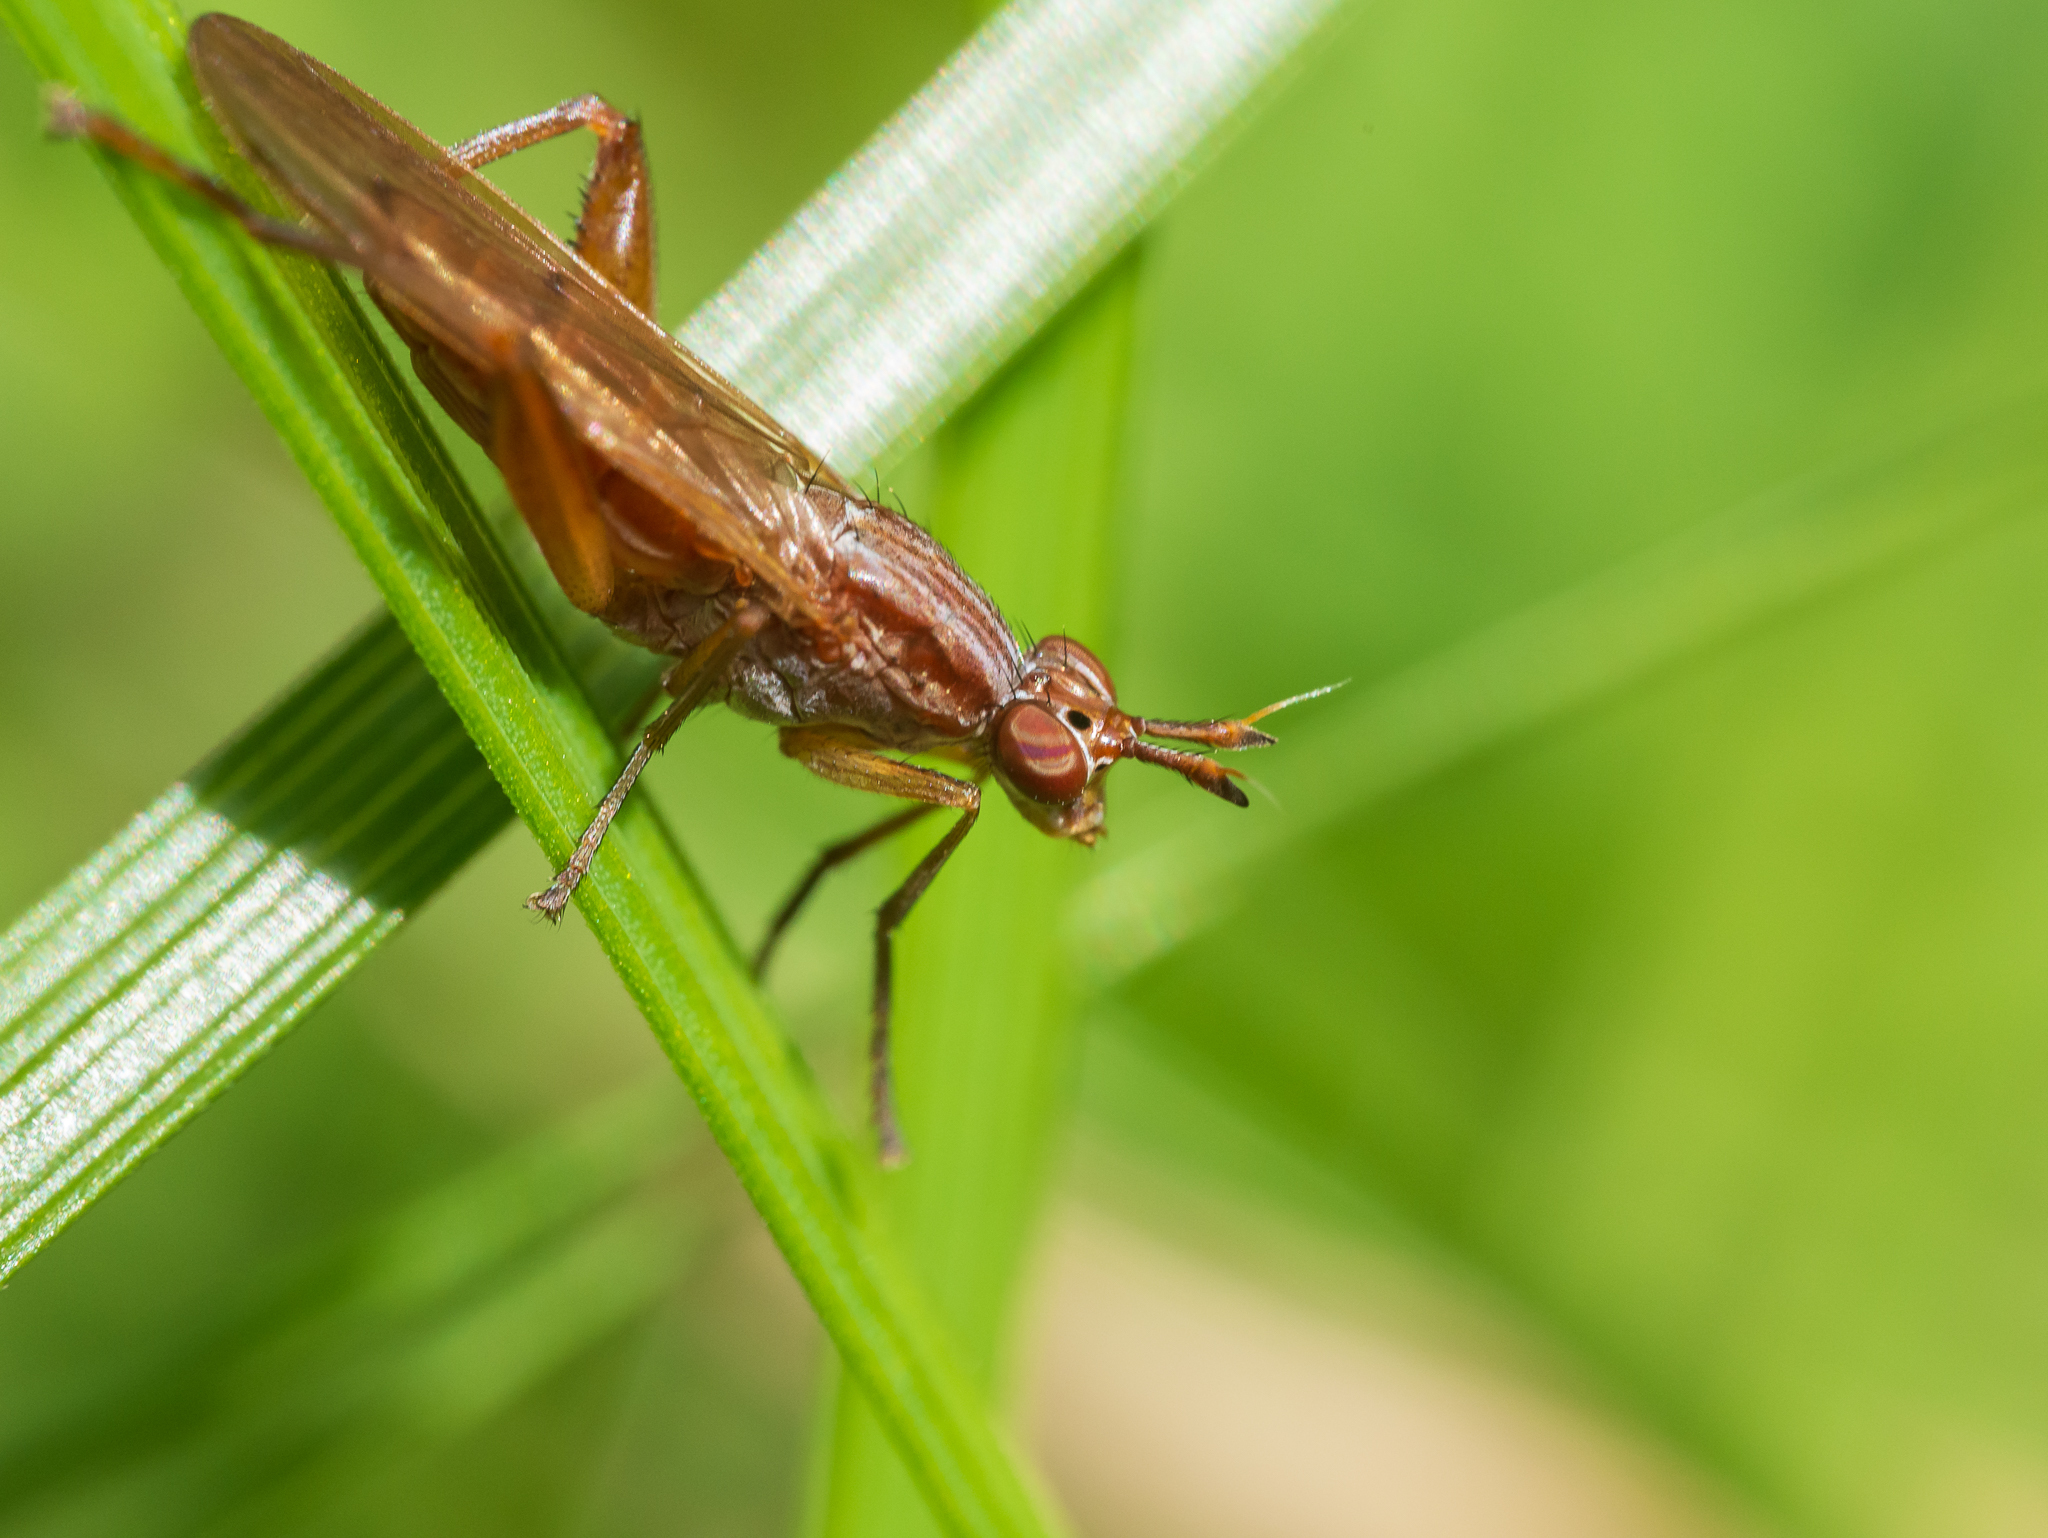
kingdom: Animalia
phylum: Arthropoda
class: Insecta
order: Diptera
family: Sciomyzidae
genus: Sepedon
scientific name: Sepedon spinipes
